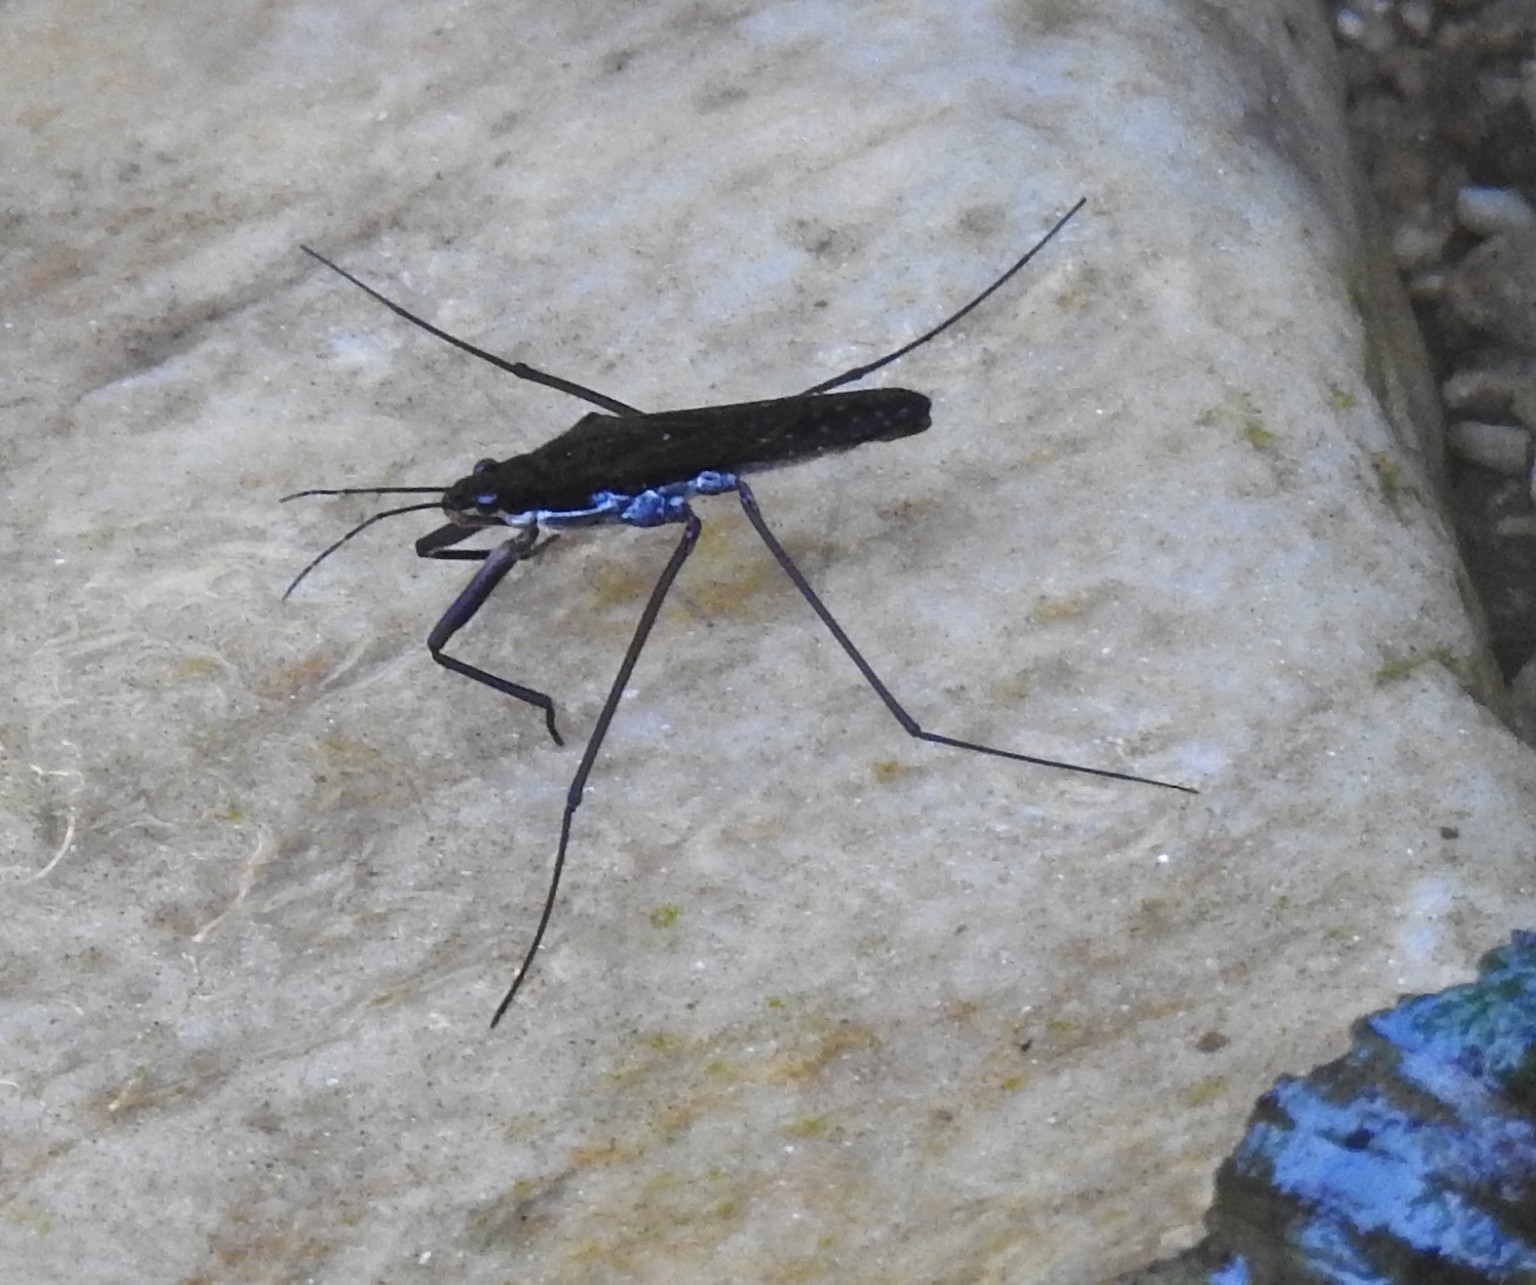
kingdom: Animalia
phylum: Arthropoda
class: Insecta
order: Hemiptera
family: Gerridae
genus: Aquarius
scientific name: Aquarius
